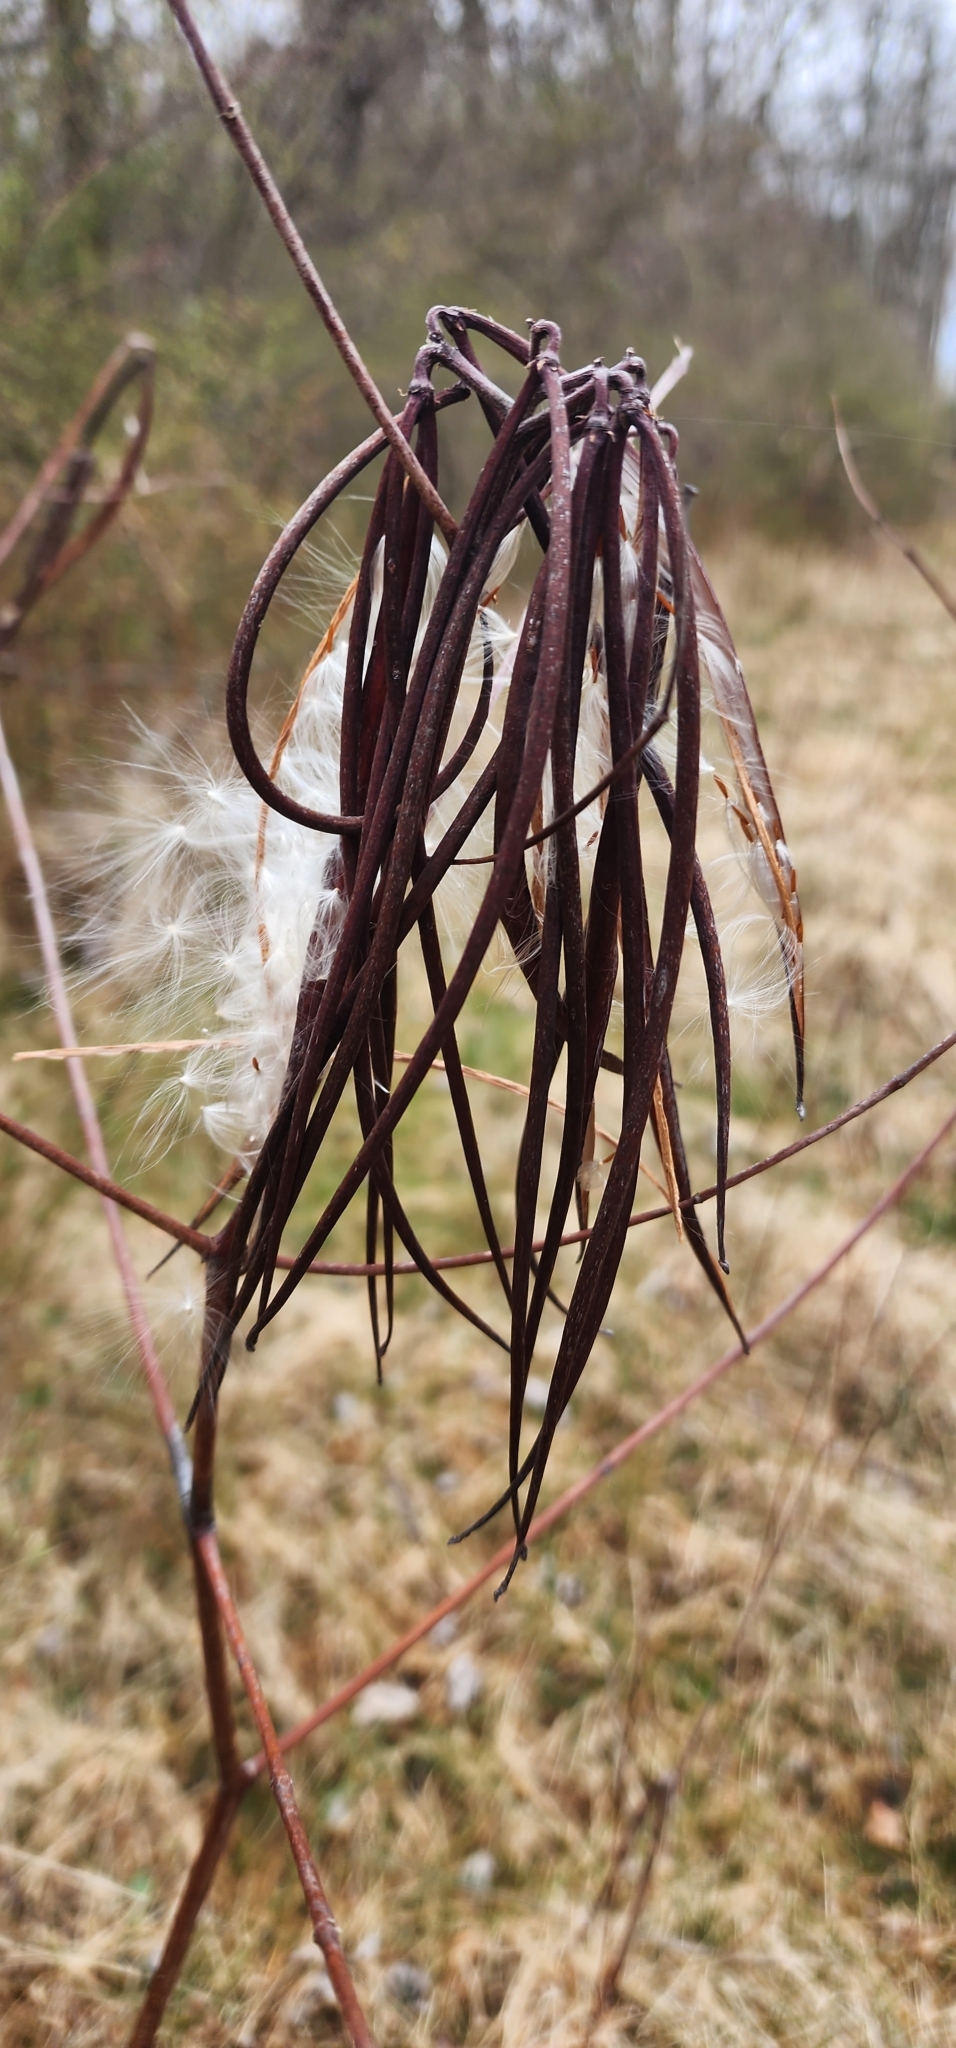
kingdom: Plantae
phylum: Tracheophyta
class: Magnoliopsida
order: Gentianales
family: Apocynaceae
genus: Apocynum
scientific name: Apocynum cannabinum
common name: Hemp dogbane
